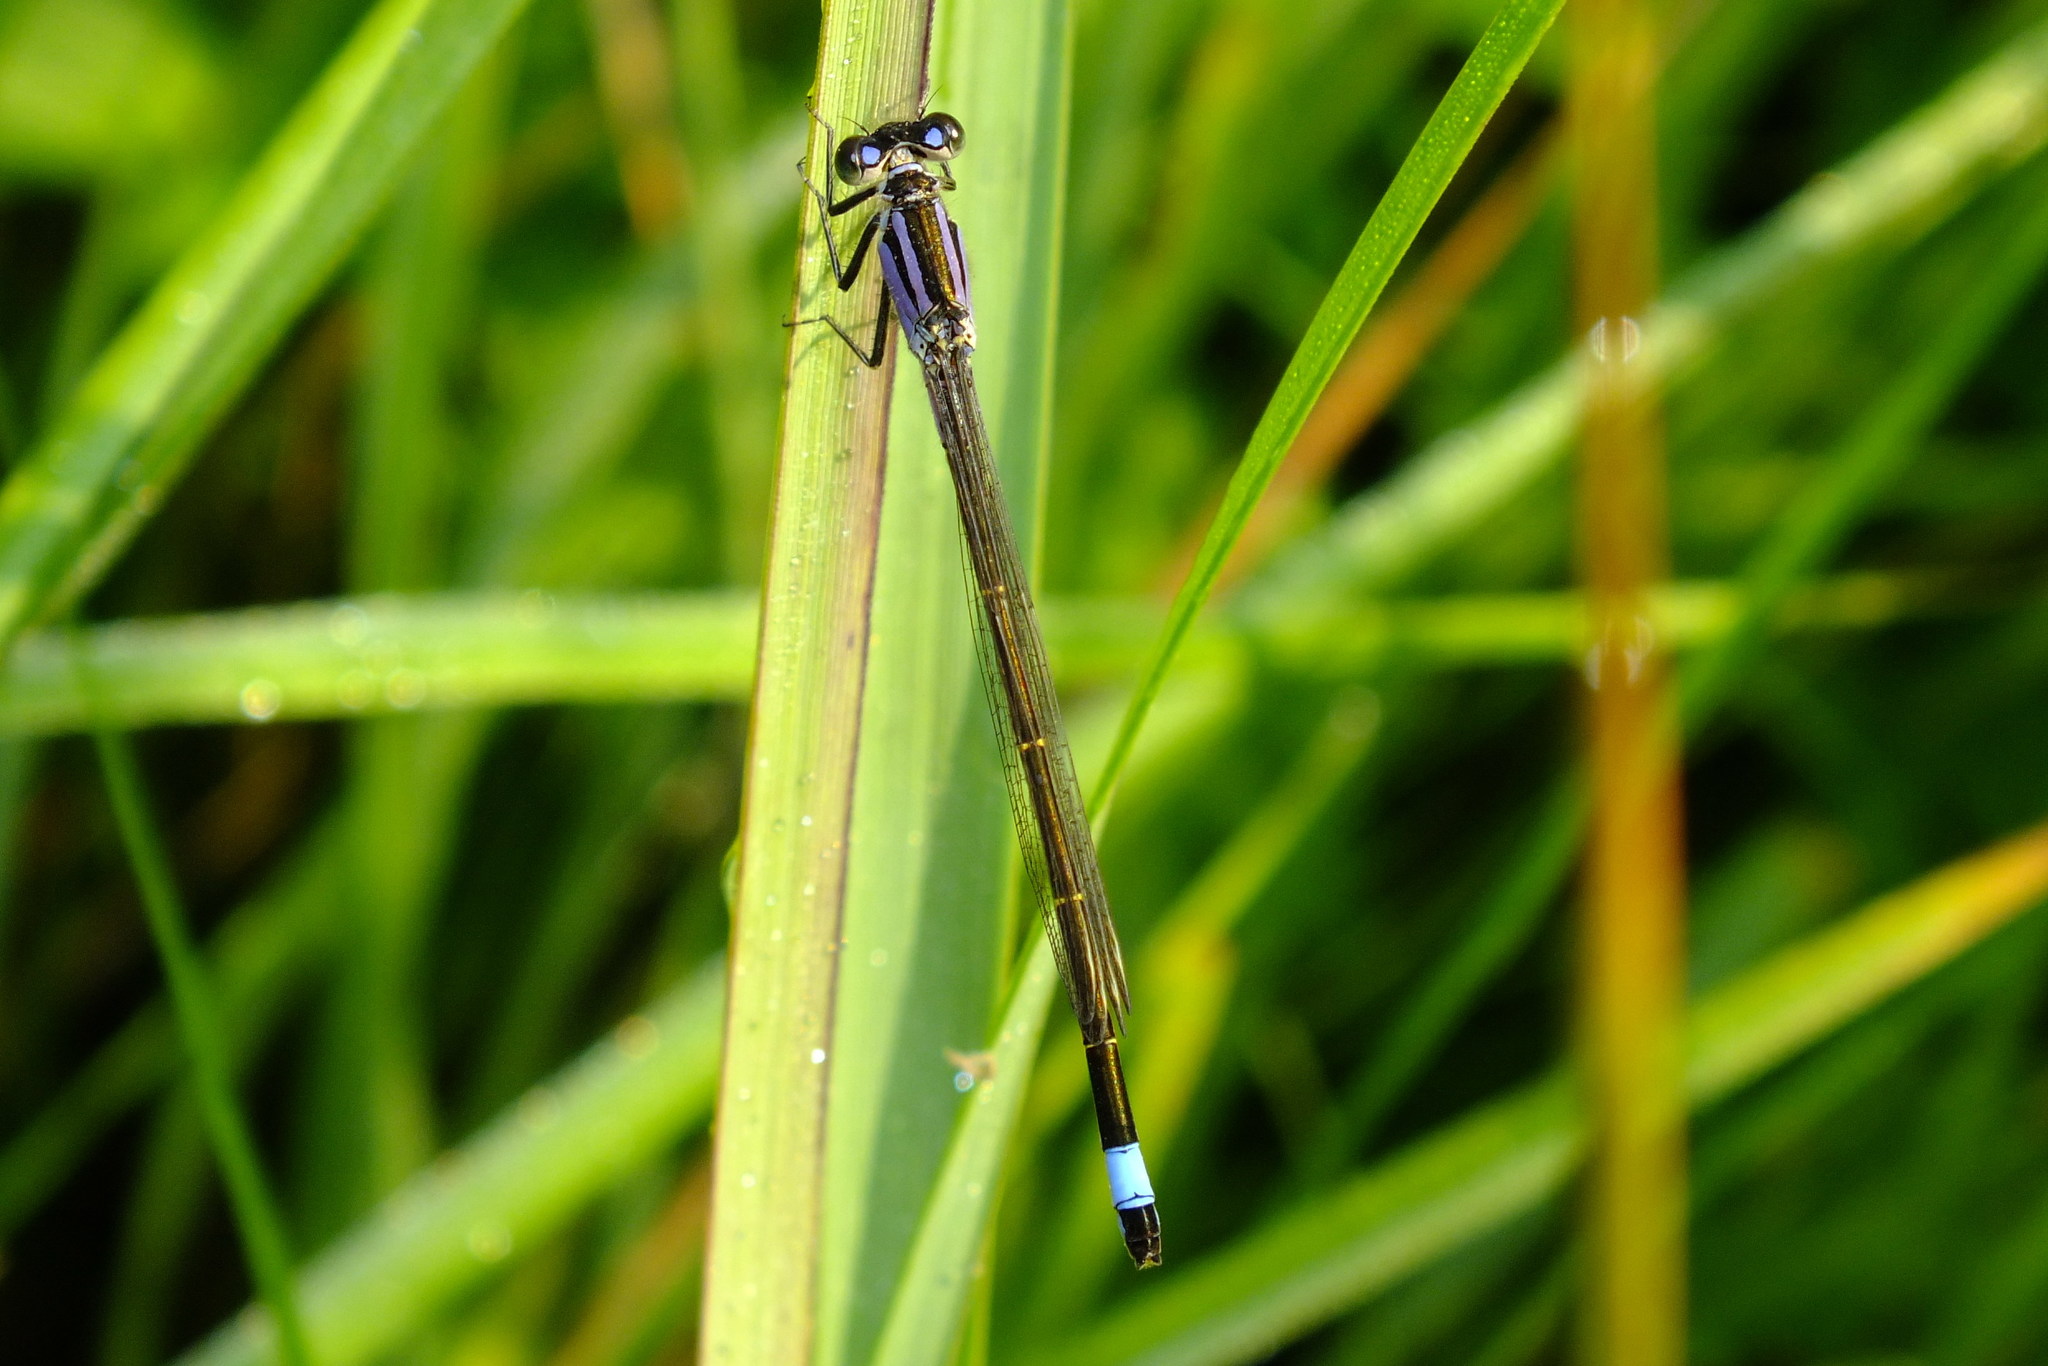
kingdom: Animalia
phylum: Arthropoda
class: Insecta
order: Odonata
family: Coenagrionidae
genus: Ischnura
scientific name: Ischnura elegans
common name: Blue-tailed damselfly
